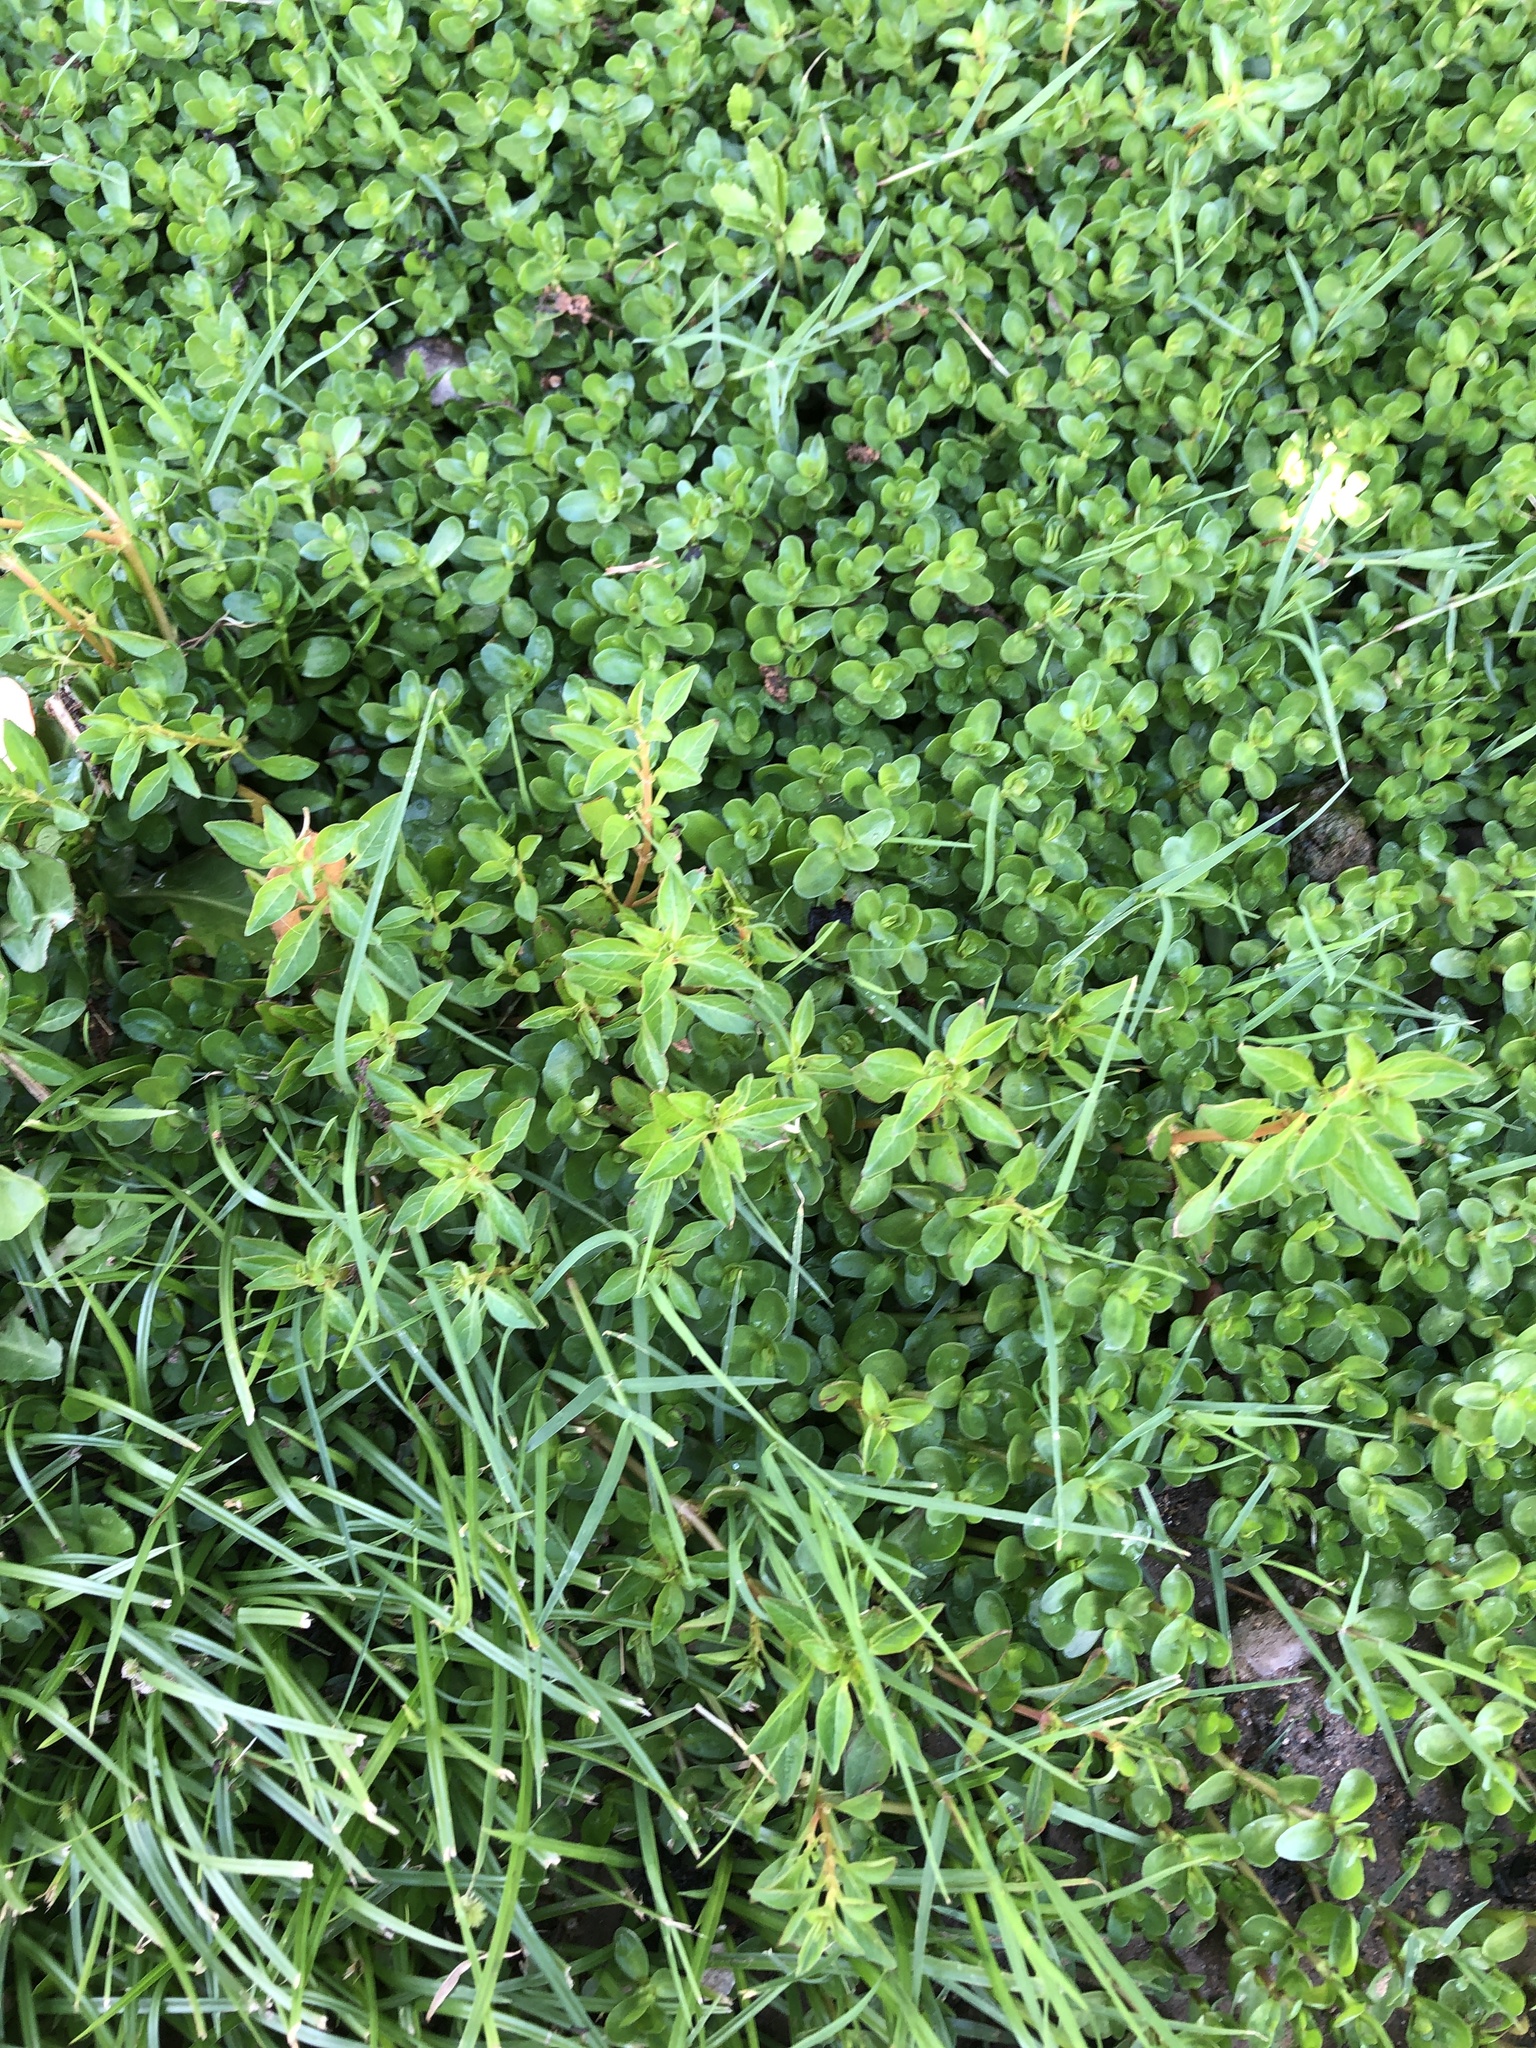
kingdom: Plantae
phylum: Tracheophyta
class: Magnoliopsida
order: Myrtales
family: Onagraceae
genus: Ludwigia
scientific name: Ludwigia palustris
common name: Hampshire-purslane
